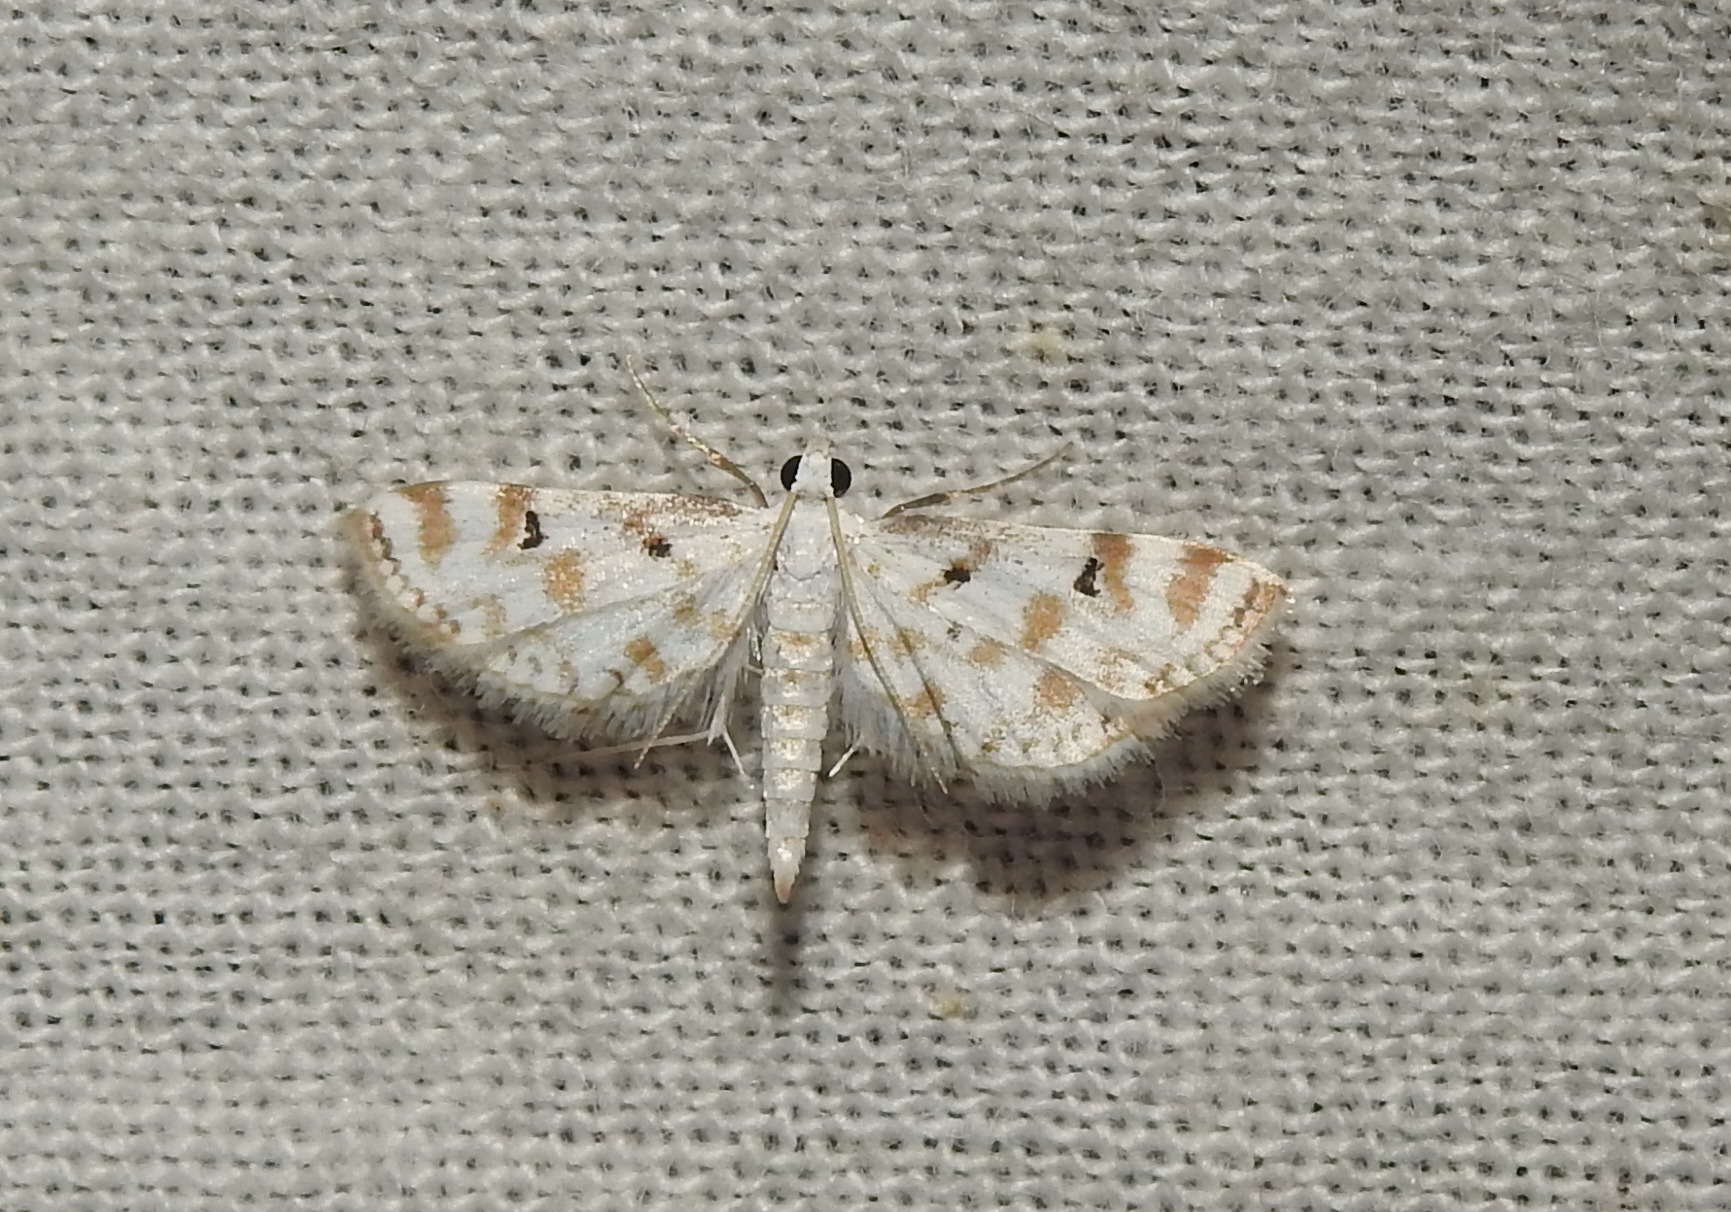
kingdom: Animalia
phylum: Arthropoda
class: Insecta
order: Lepidoptera
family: Crambidae
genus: Parapoynx
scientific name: Parapoynx stagnalis
